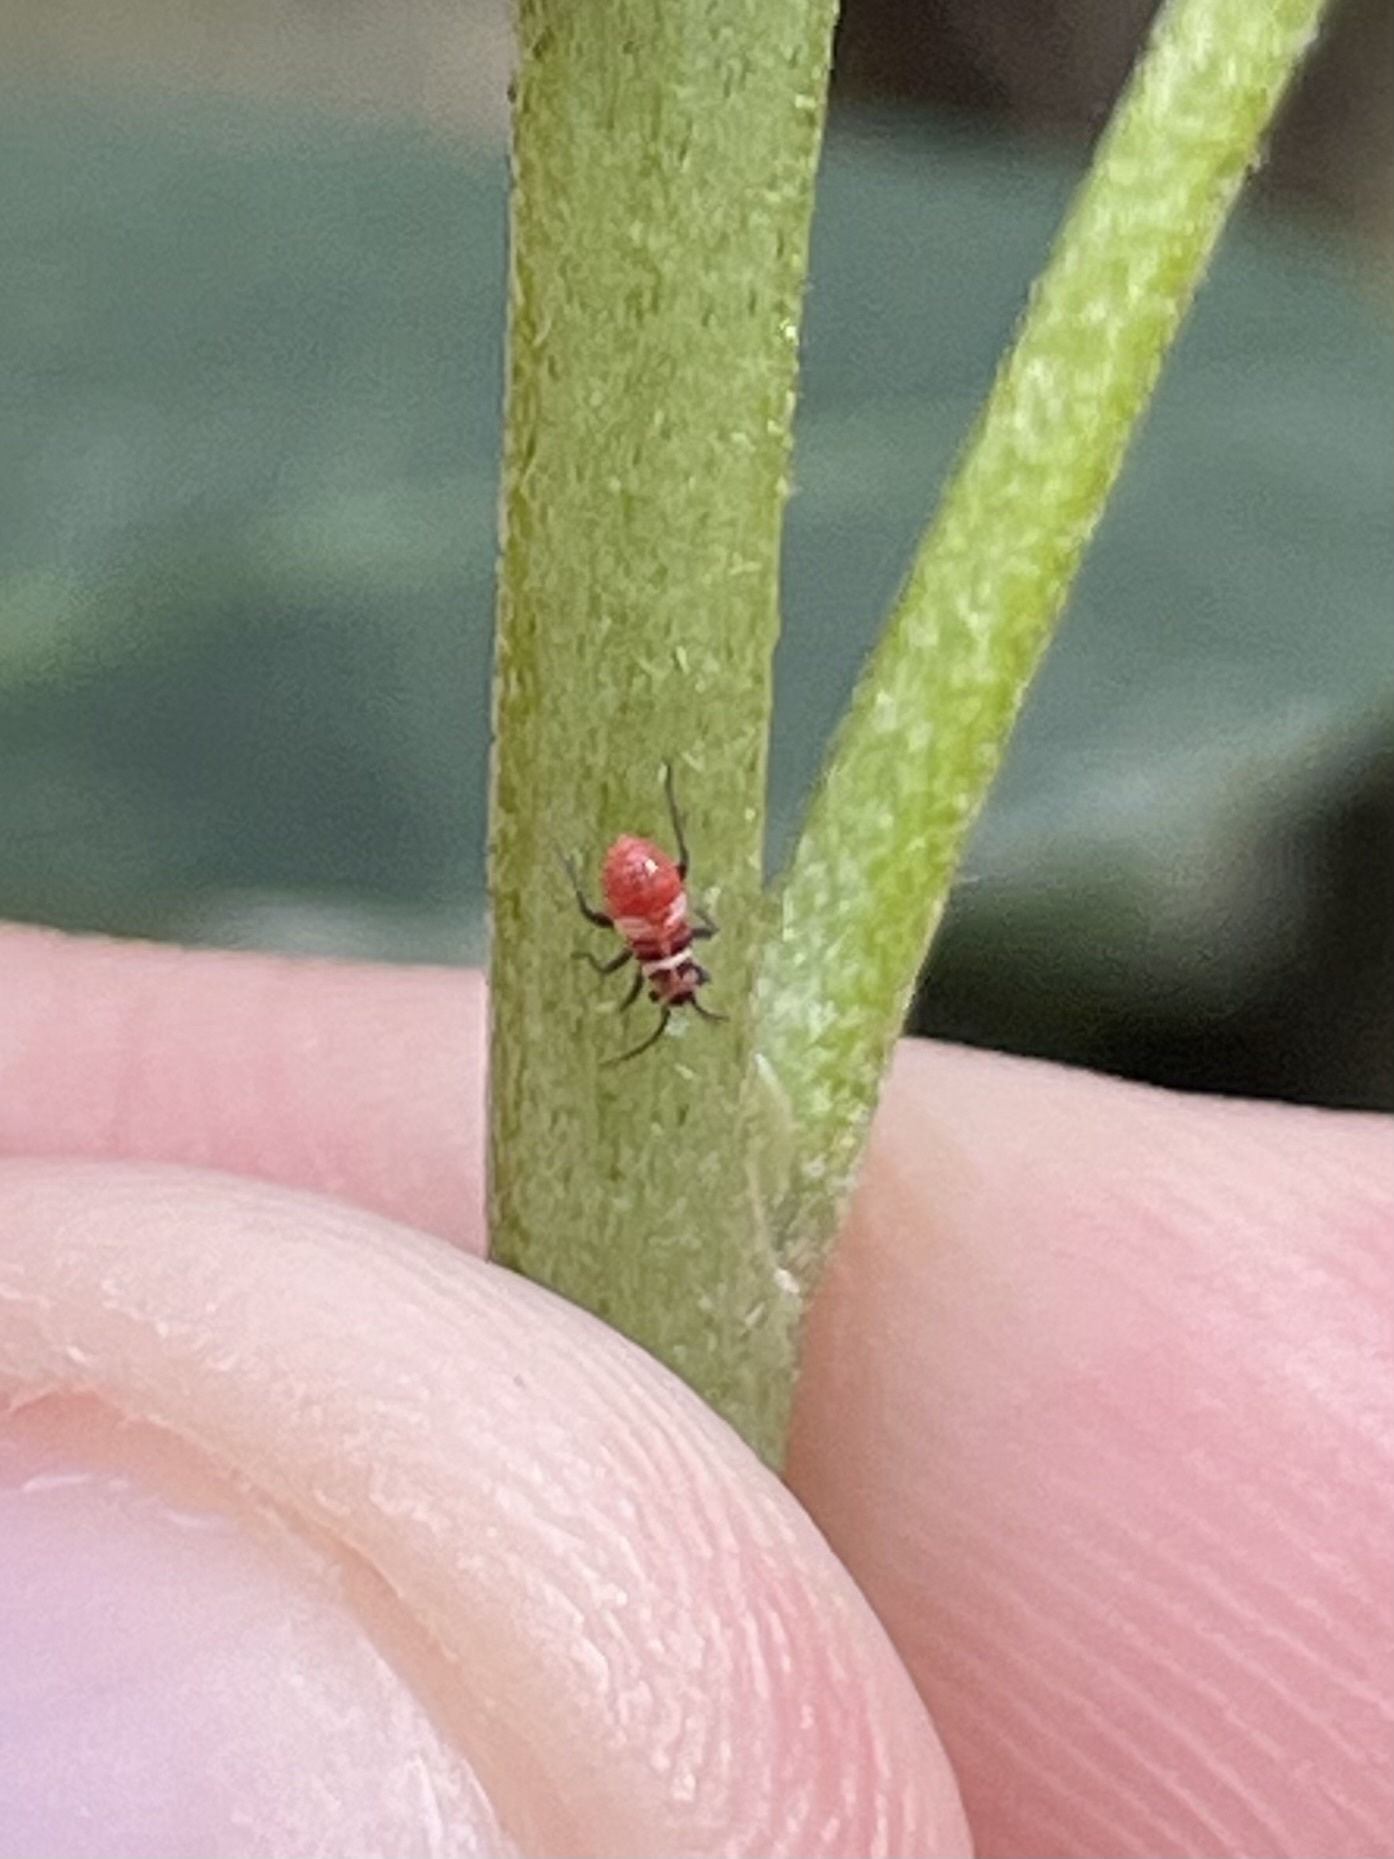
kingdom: Animalia
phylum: Arthropoda
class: Insecta
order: Hemiptera
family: Miridae
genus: Lopidea
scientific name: Lopidea major
